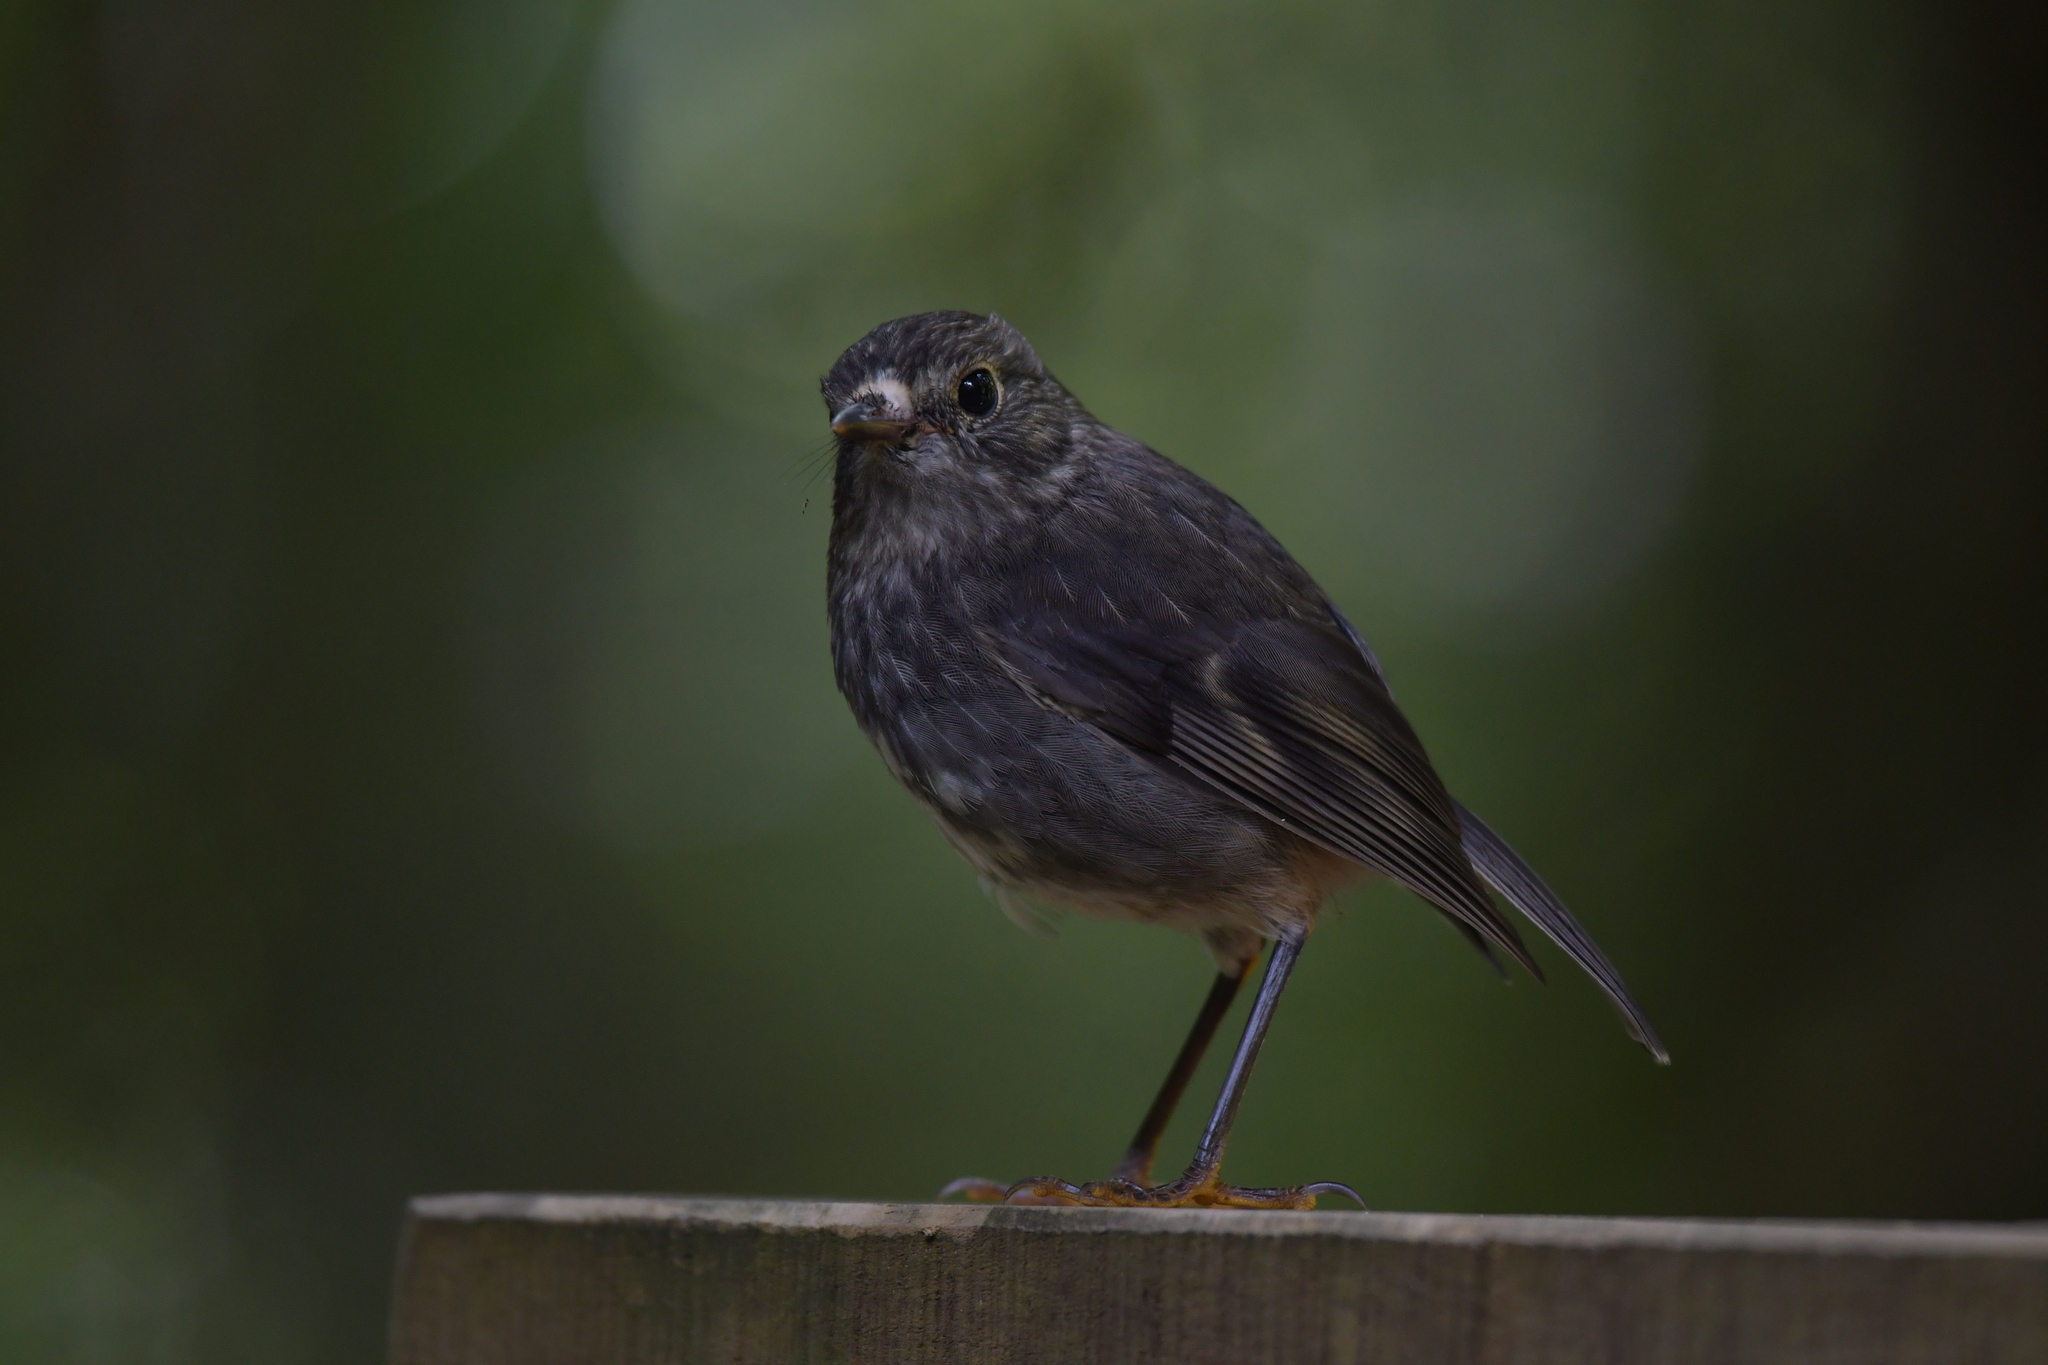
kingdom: Animalia
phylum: Chordata
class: Aves
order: Passeriformes
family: Petroicidae
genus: Petroica
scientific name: Petroica australis
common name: New zealand robin
